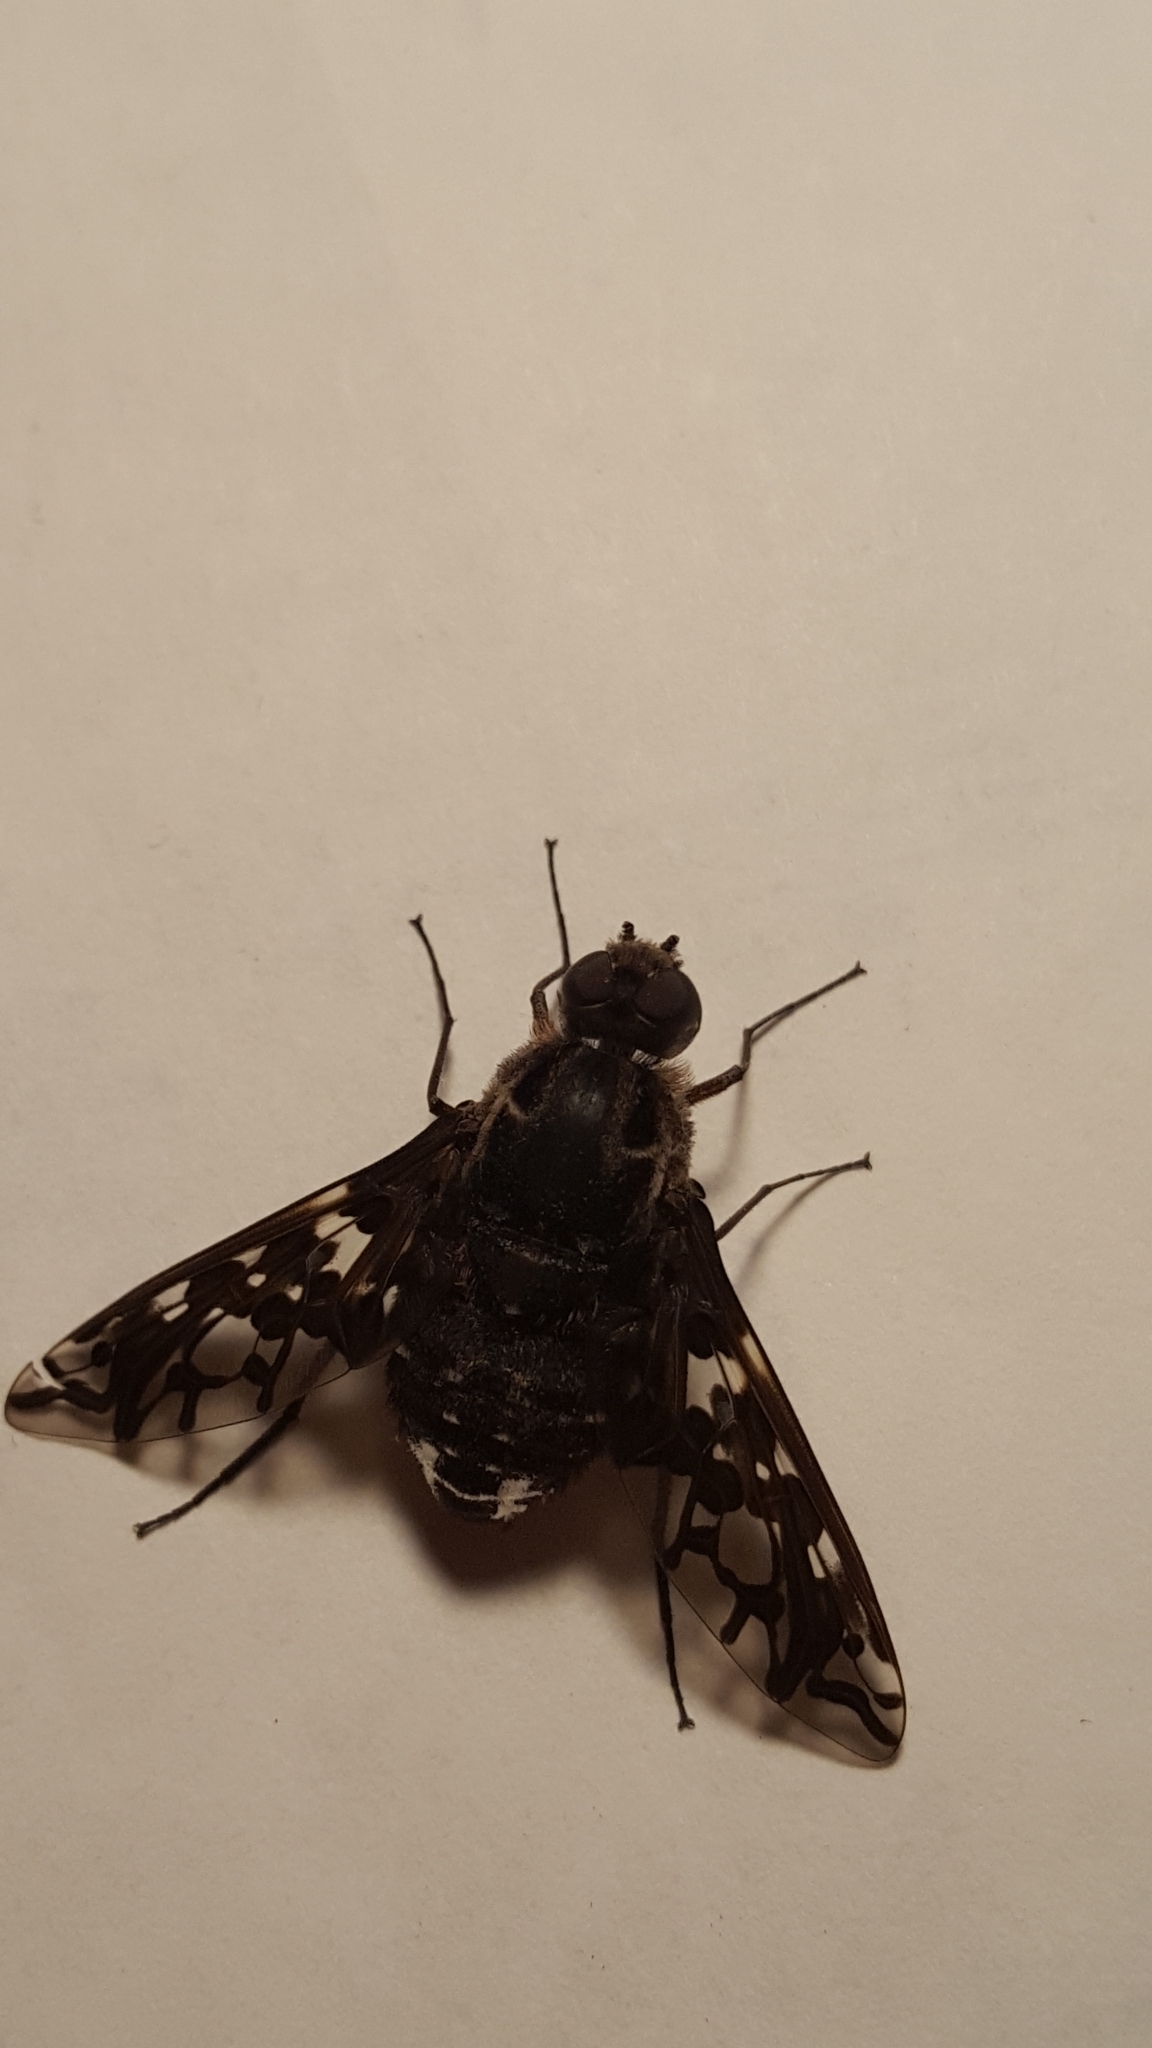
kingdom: Animalia
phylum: Arthropoda
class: Insecta
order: Diptera
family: Bombyliidae
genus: Xenox
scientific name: Xenox tigrinus
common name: Tiger bee fly
